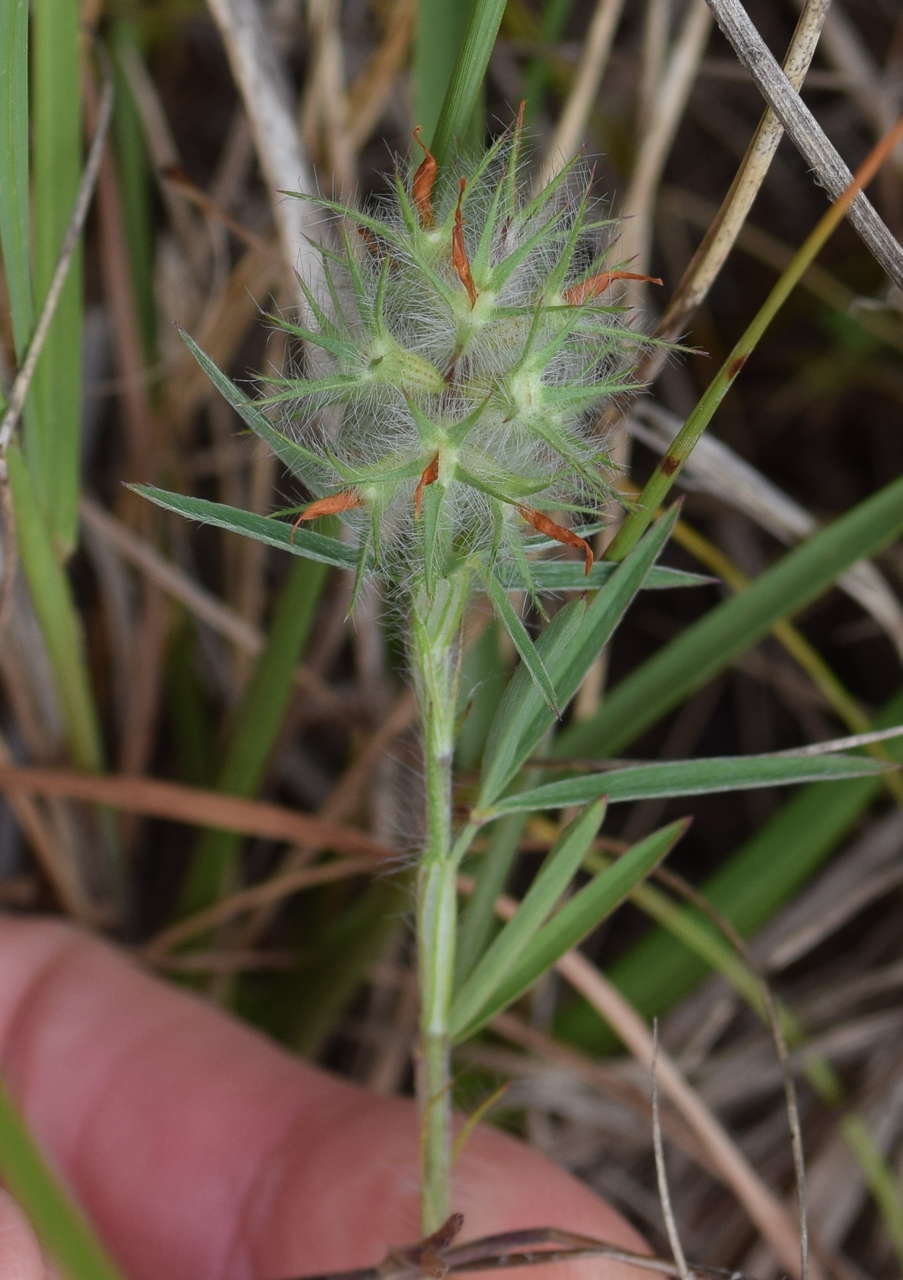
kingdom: Plantae
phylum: Tracheophyta
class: Magnoliopsida
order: Fabales
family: Fabaceae
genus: Trifolium
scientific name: Trifolium angustifolium
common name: Narrow clover
